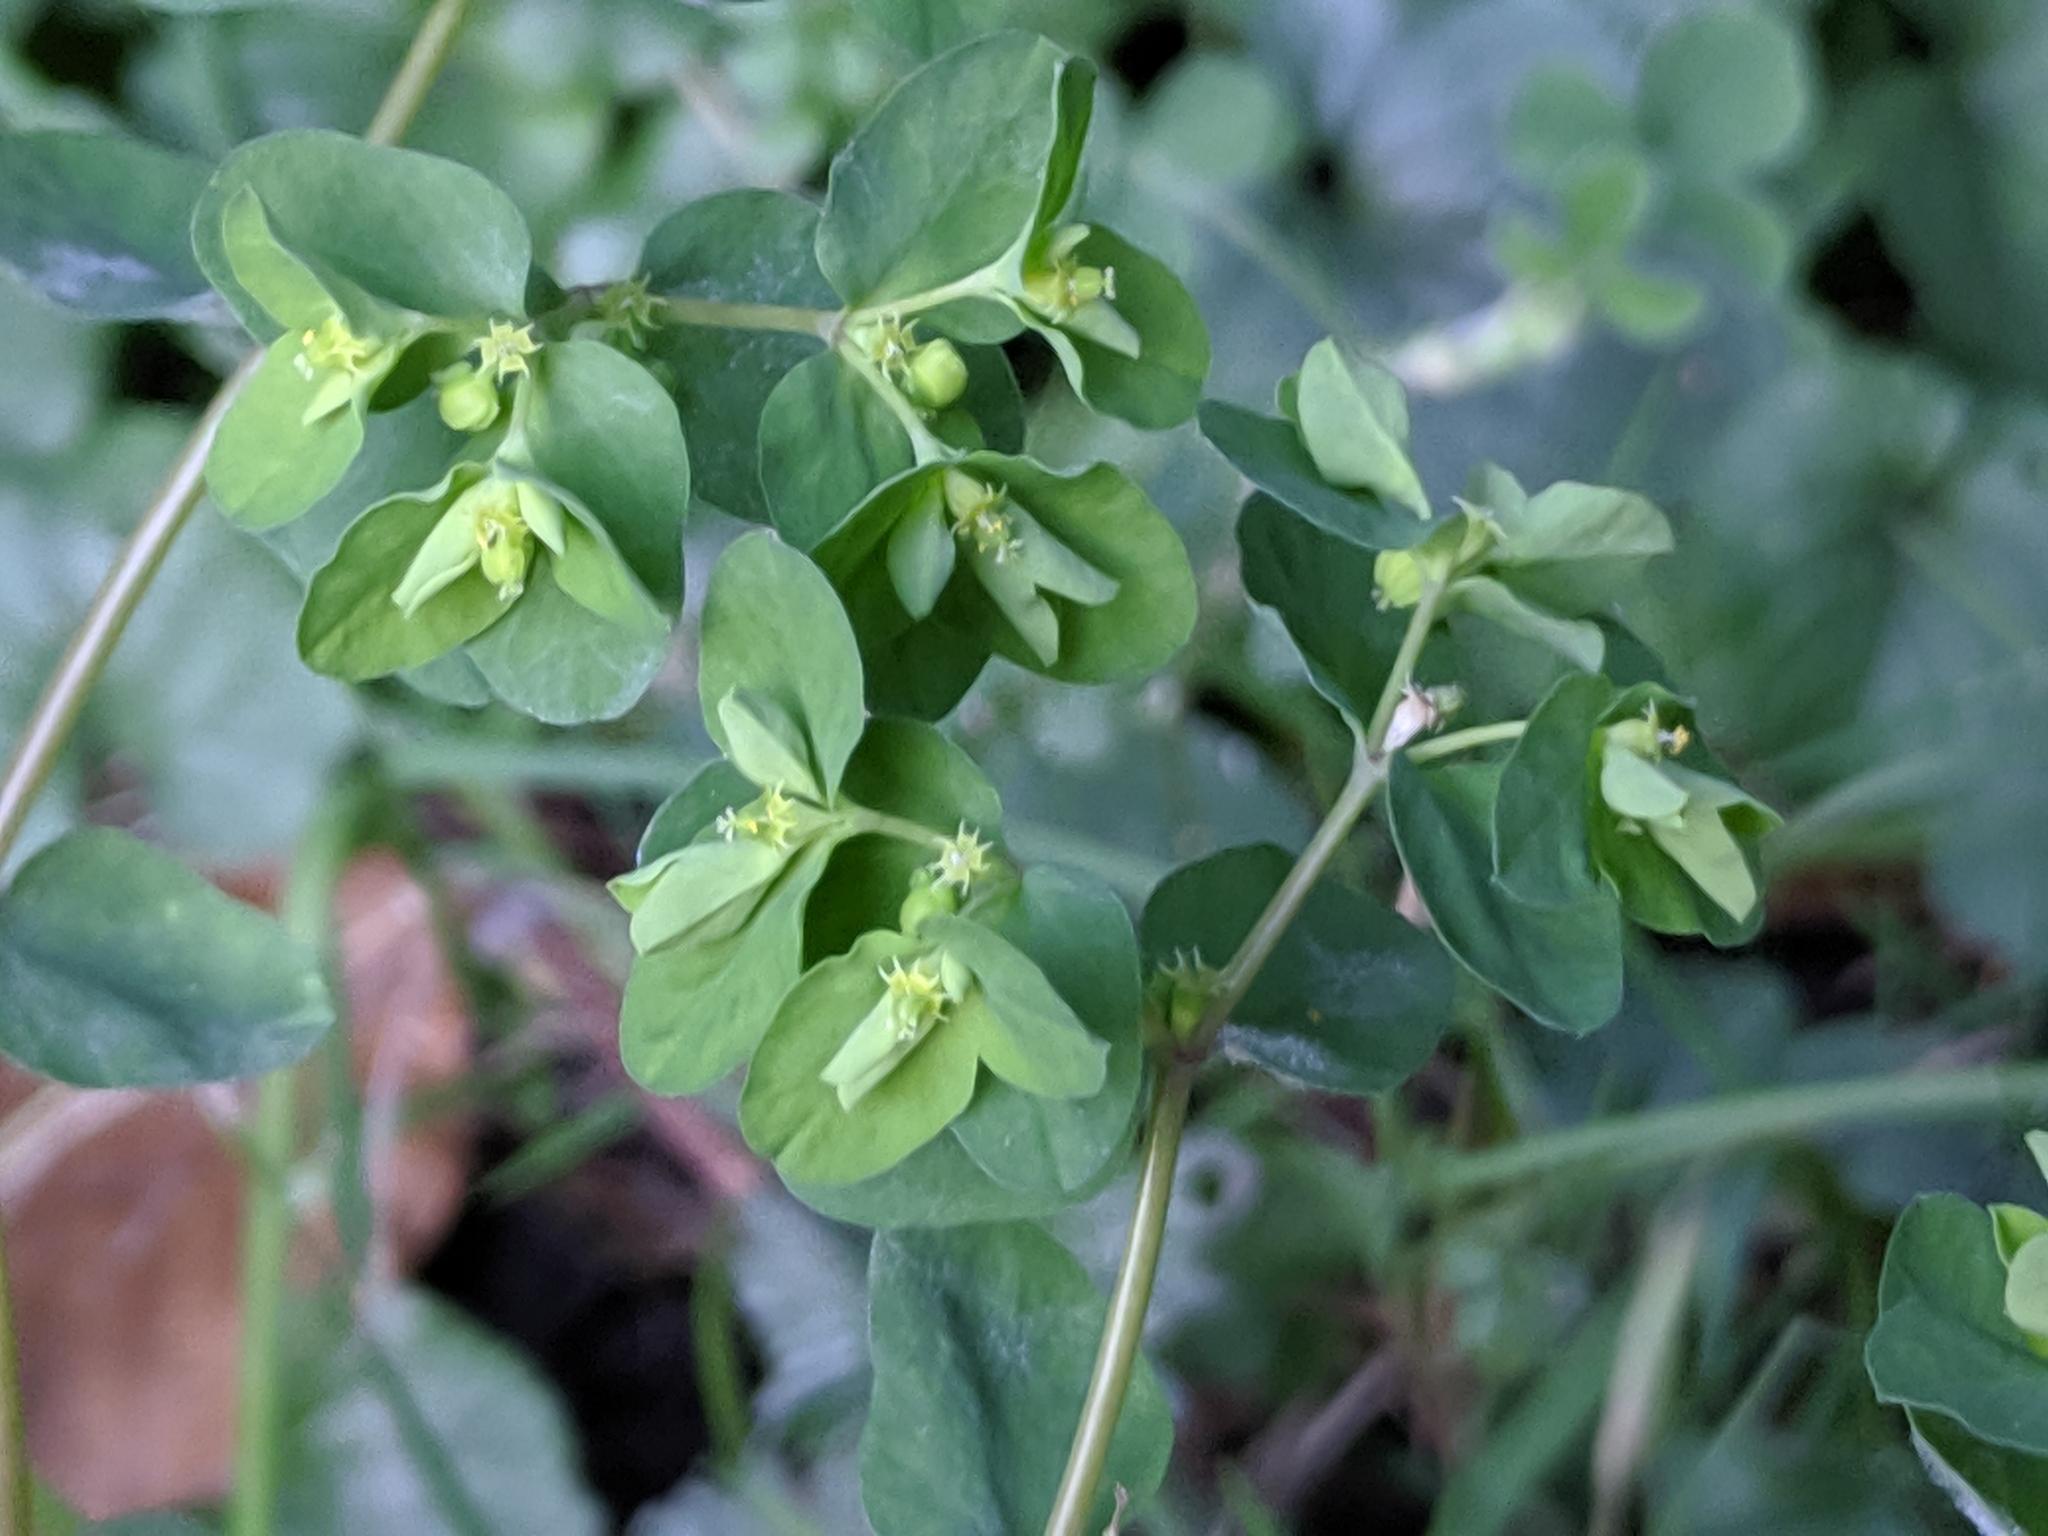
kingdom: Plantae
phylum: Tracheophyta
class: Magnoliopsida
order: Malpighiales
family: Euphorbiaceae
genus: Euphorbia
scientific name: Euphorbia peplus
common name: Petty spurge
